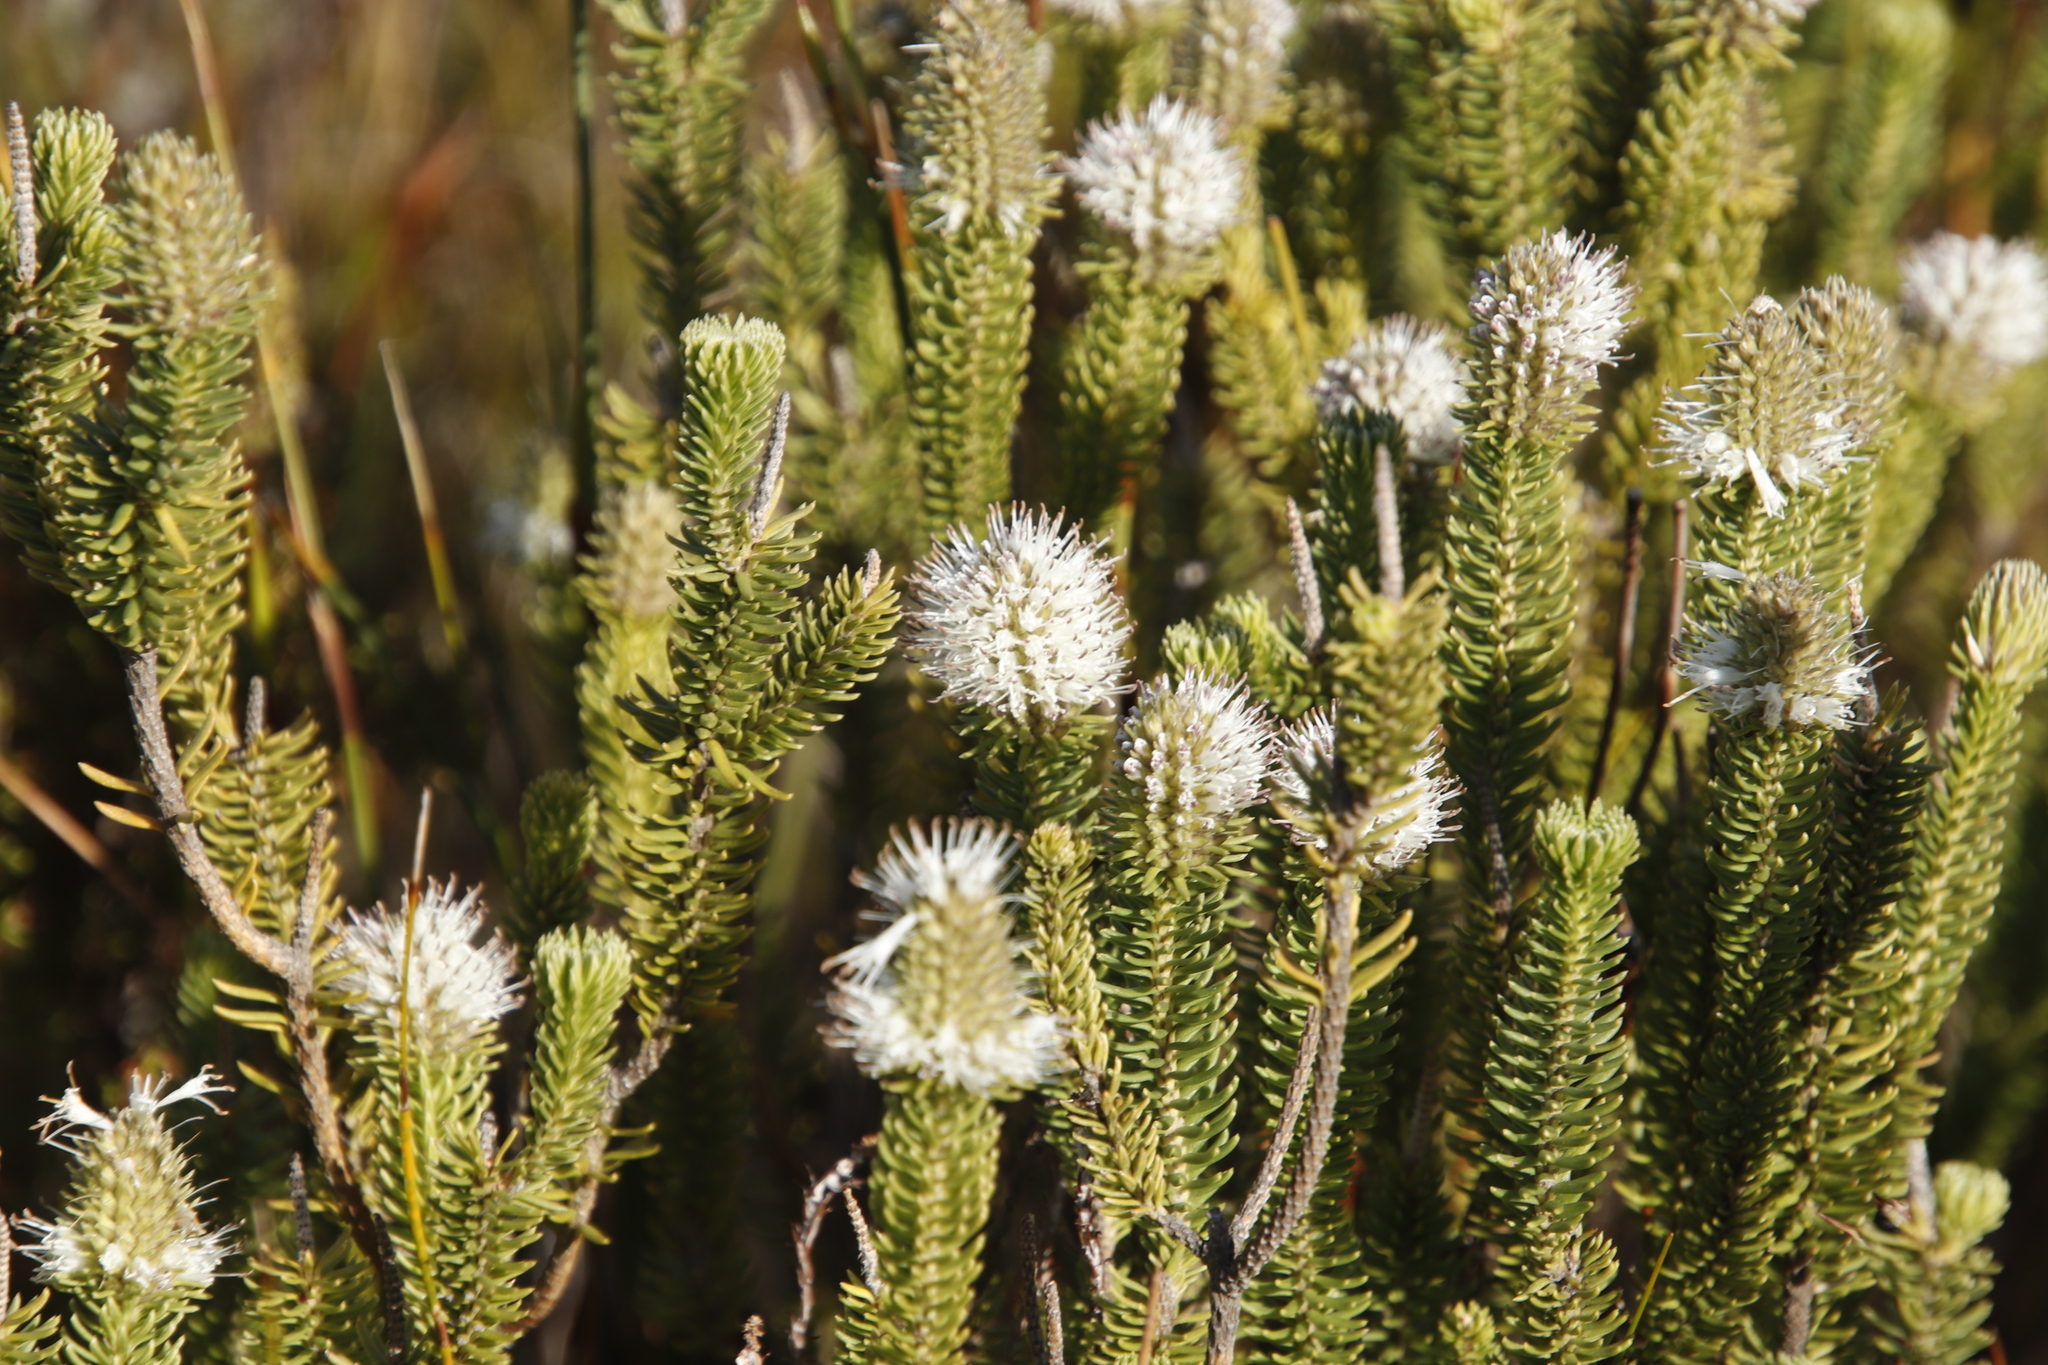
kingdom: Plantae
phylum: Tracheophyta
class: Magnoliopsida
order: Lamiales
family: Stilbaceae
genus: Stilbe
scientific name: Stilbe vestita
